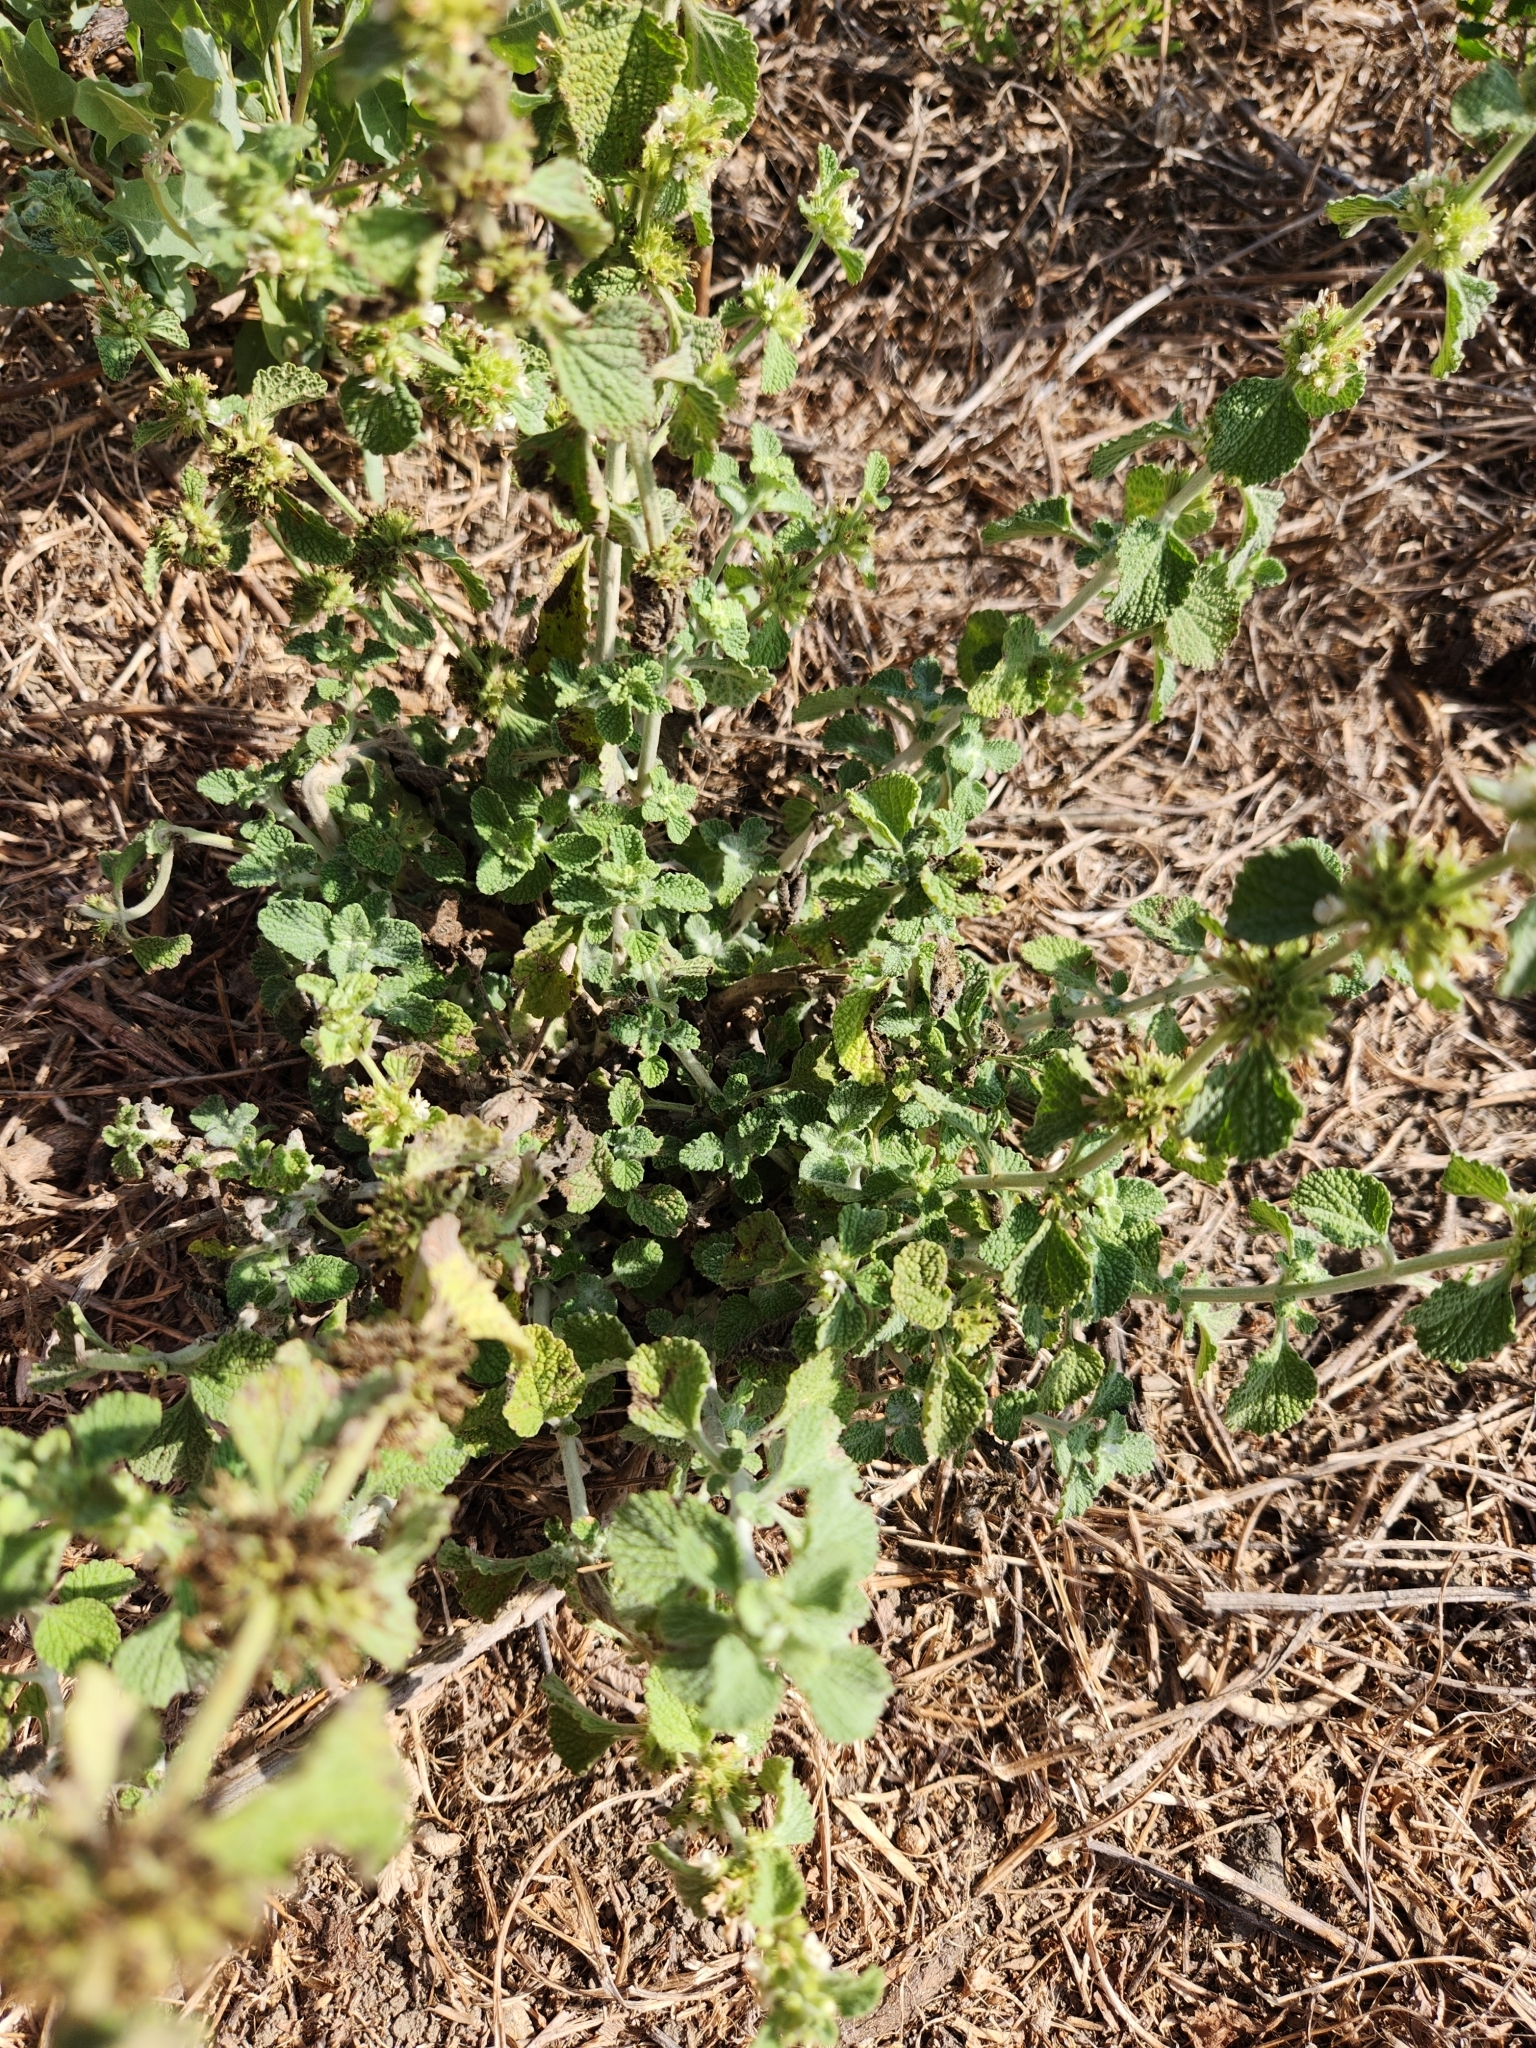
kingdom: Plantae
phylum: Tracheophyta
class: Magnoliopsida
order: Lamiales
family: Lamiaceae
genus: Marrubium
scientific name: Marrubium vulgare
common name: Horehound
